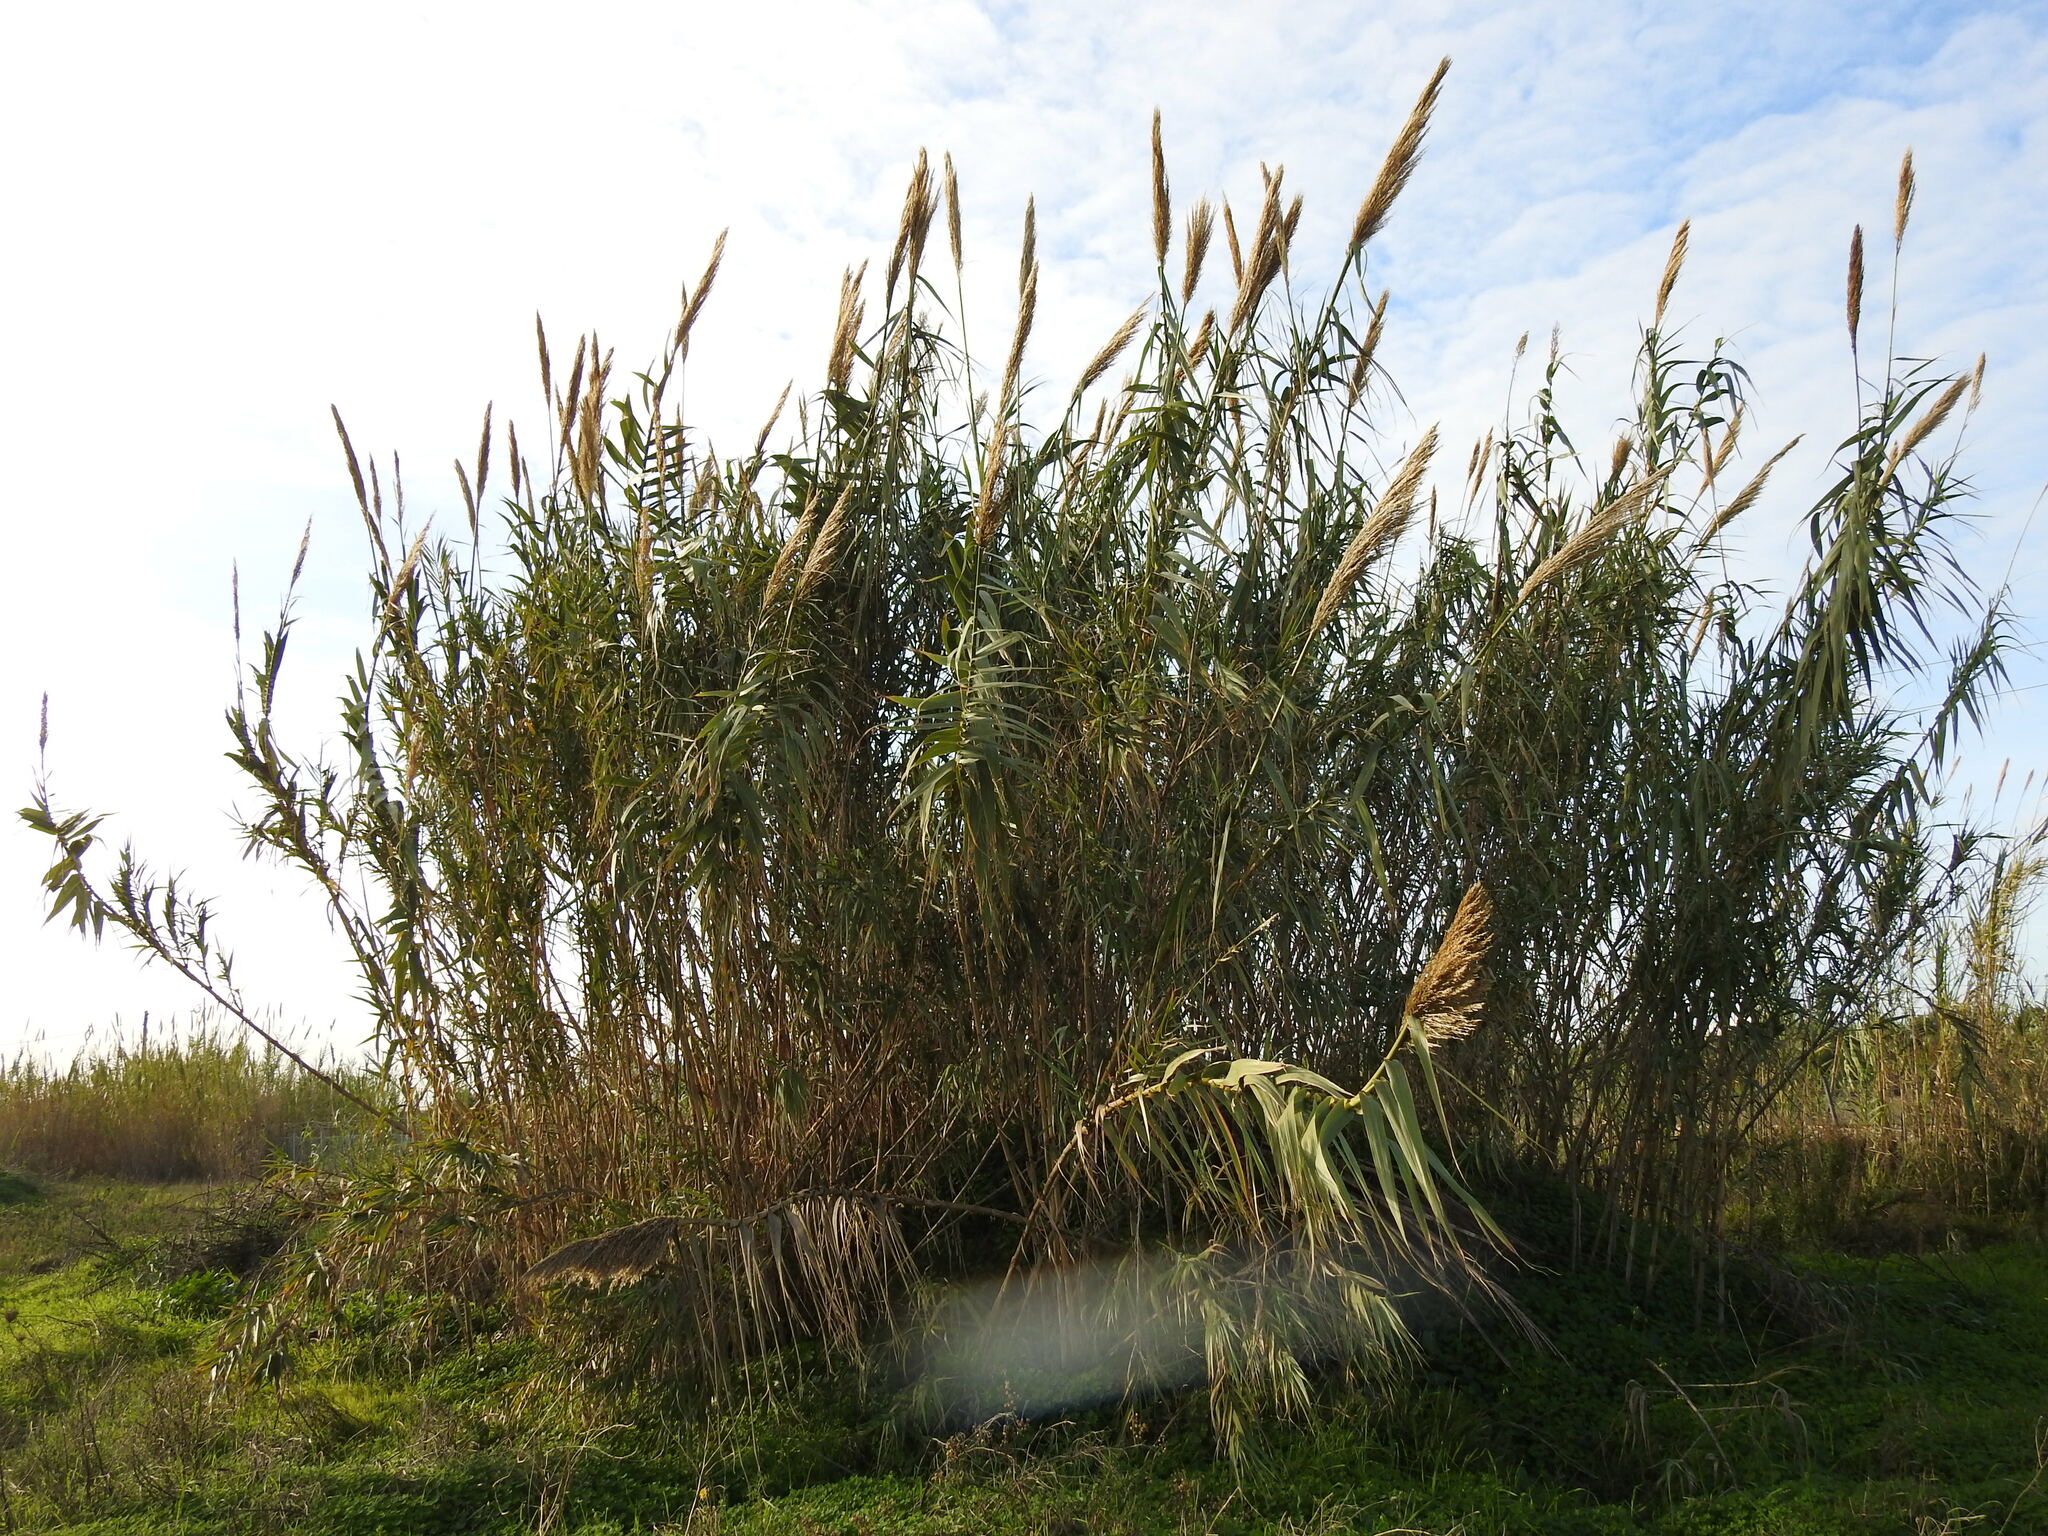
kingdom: Plantae
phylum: Tracheophyta
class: Liliopsida
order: Poales
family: Poaceae
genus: Arundo
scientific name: Arundo donax
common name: Giant reed
